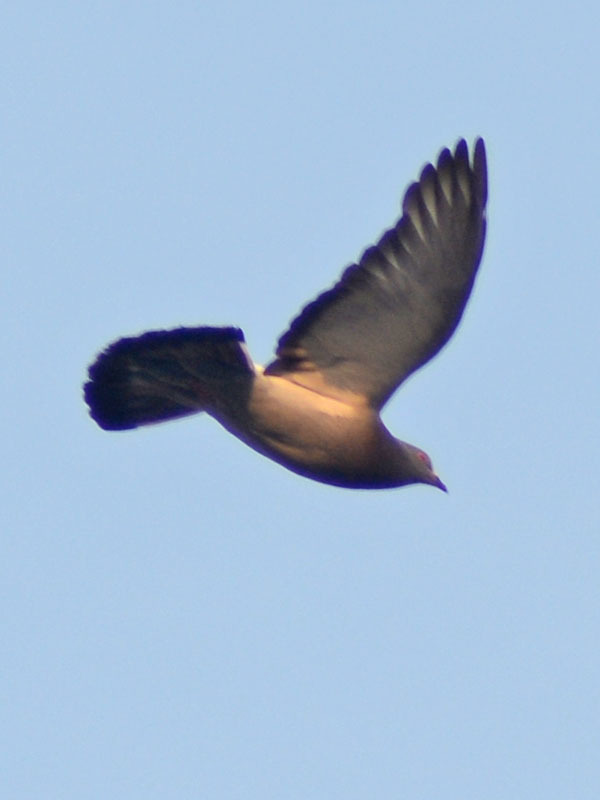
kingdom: Animalia
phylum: Chordata
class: Aves
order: Columbiformes
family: Columbidae
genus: Columba
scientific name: Columba livia
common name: Rock pigeon
